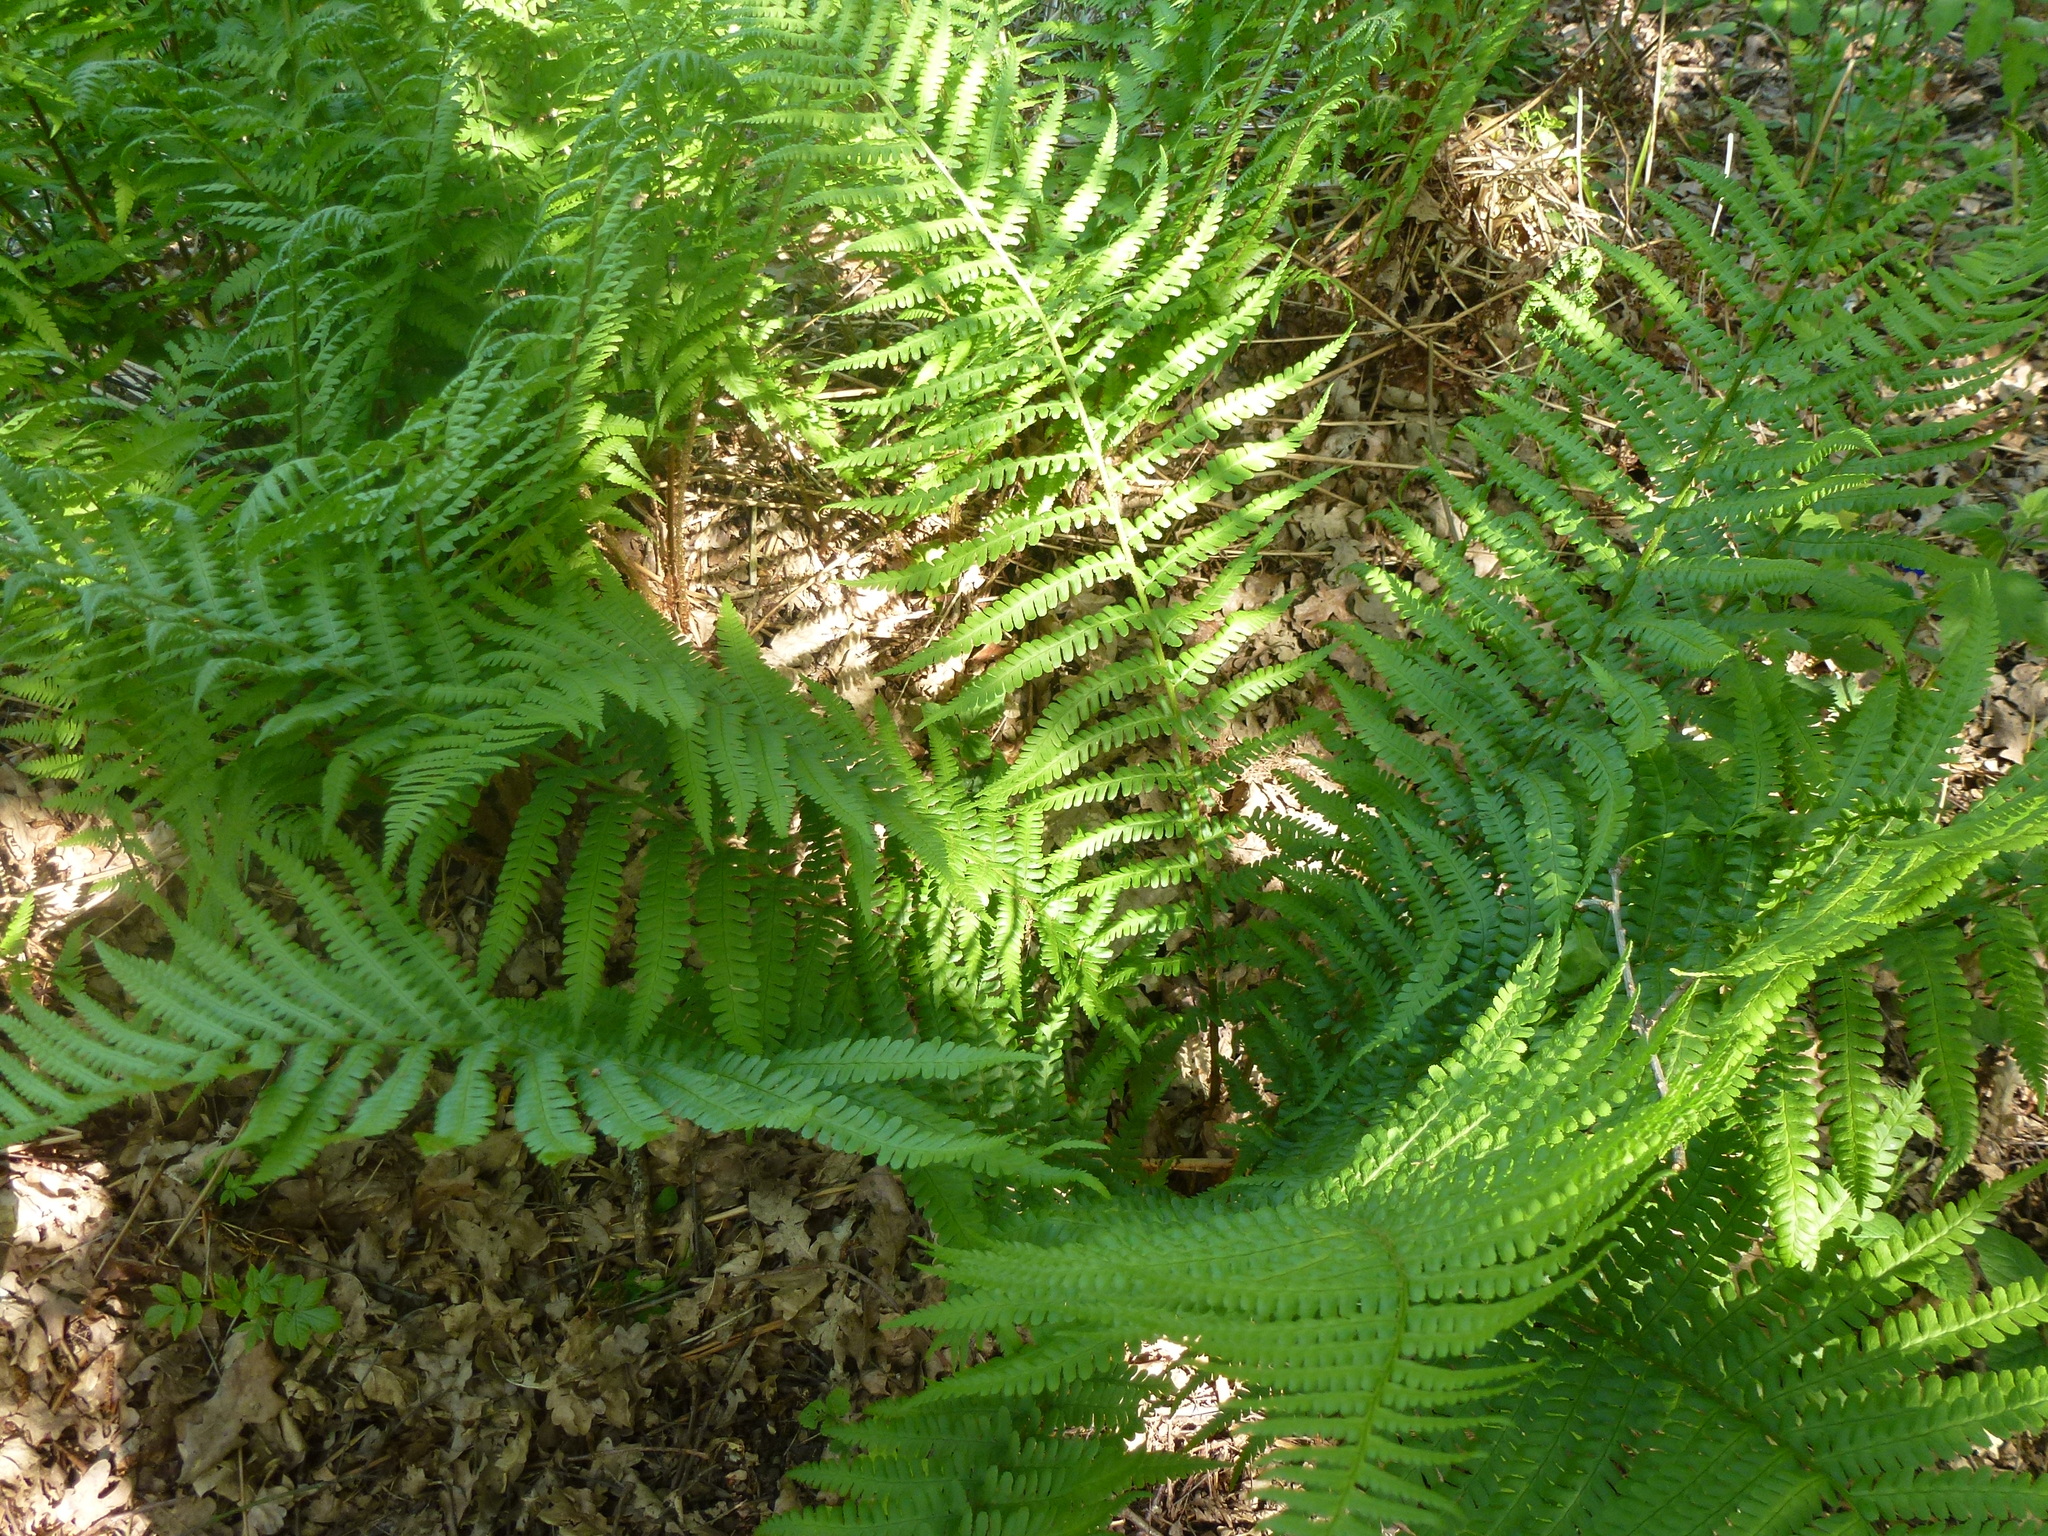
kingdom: Plantae
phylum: Tracheophyta
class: Polypodiopsida
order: Polypodiales
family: Dryopteridaceae
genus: Dryopteris
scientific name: Dryopteris filix-mas
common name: Male fern
